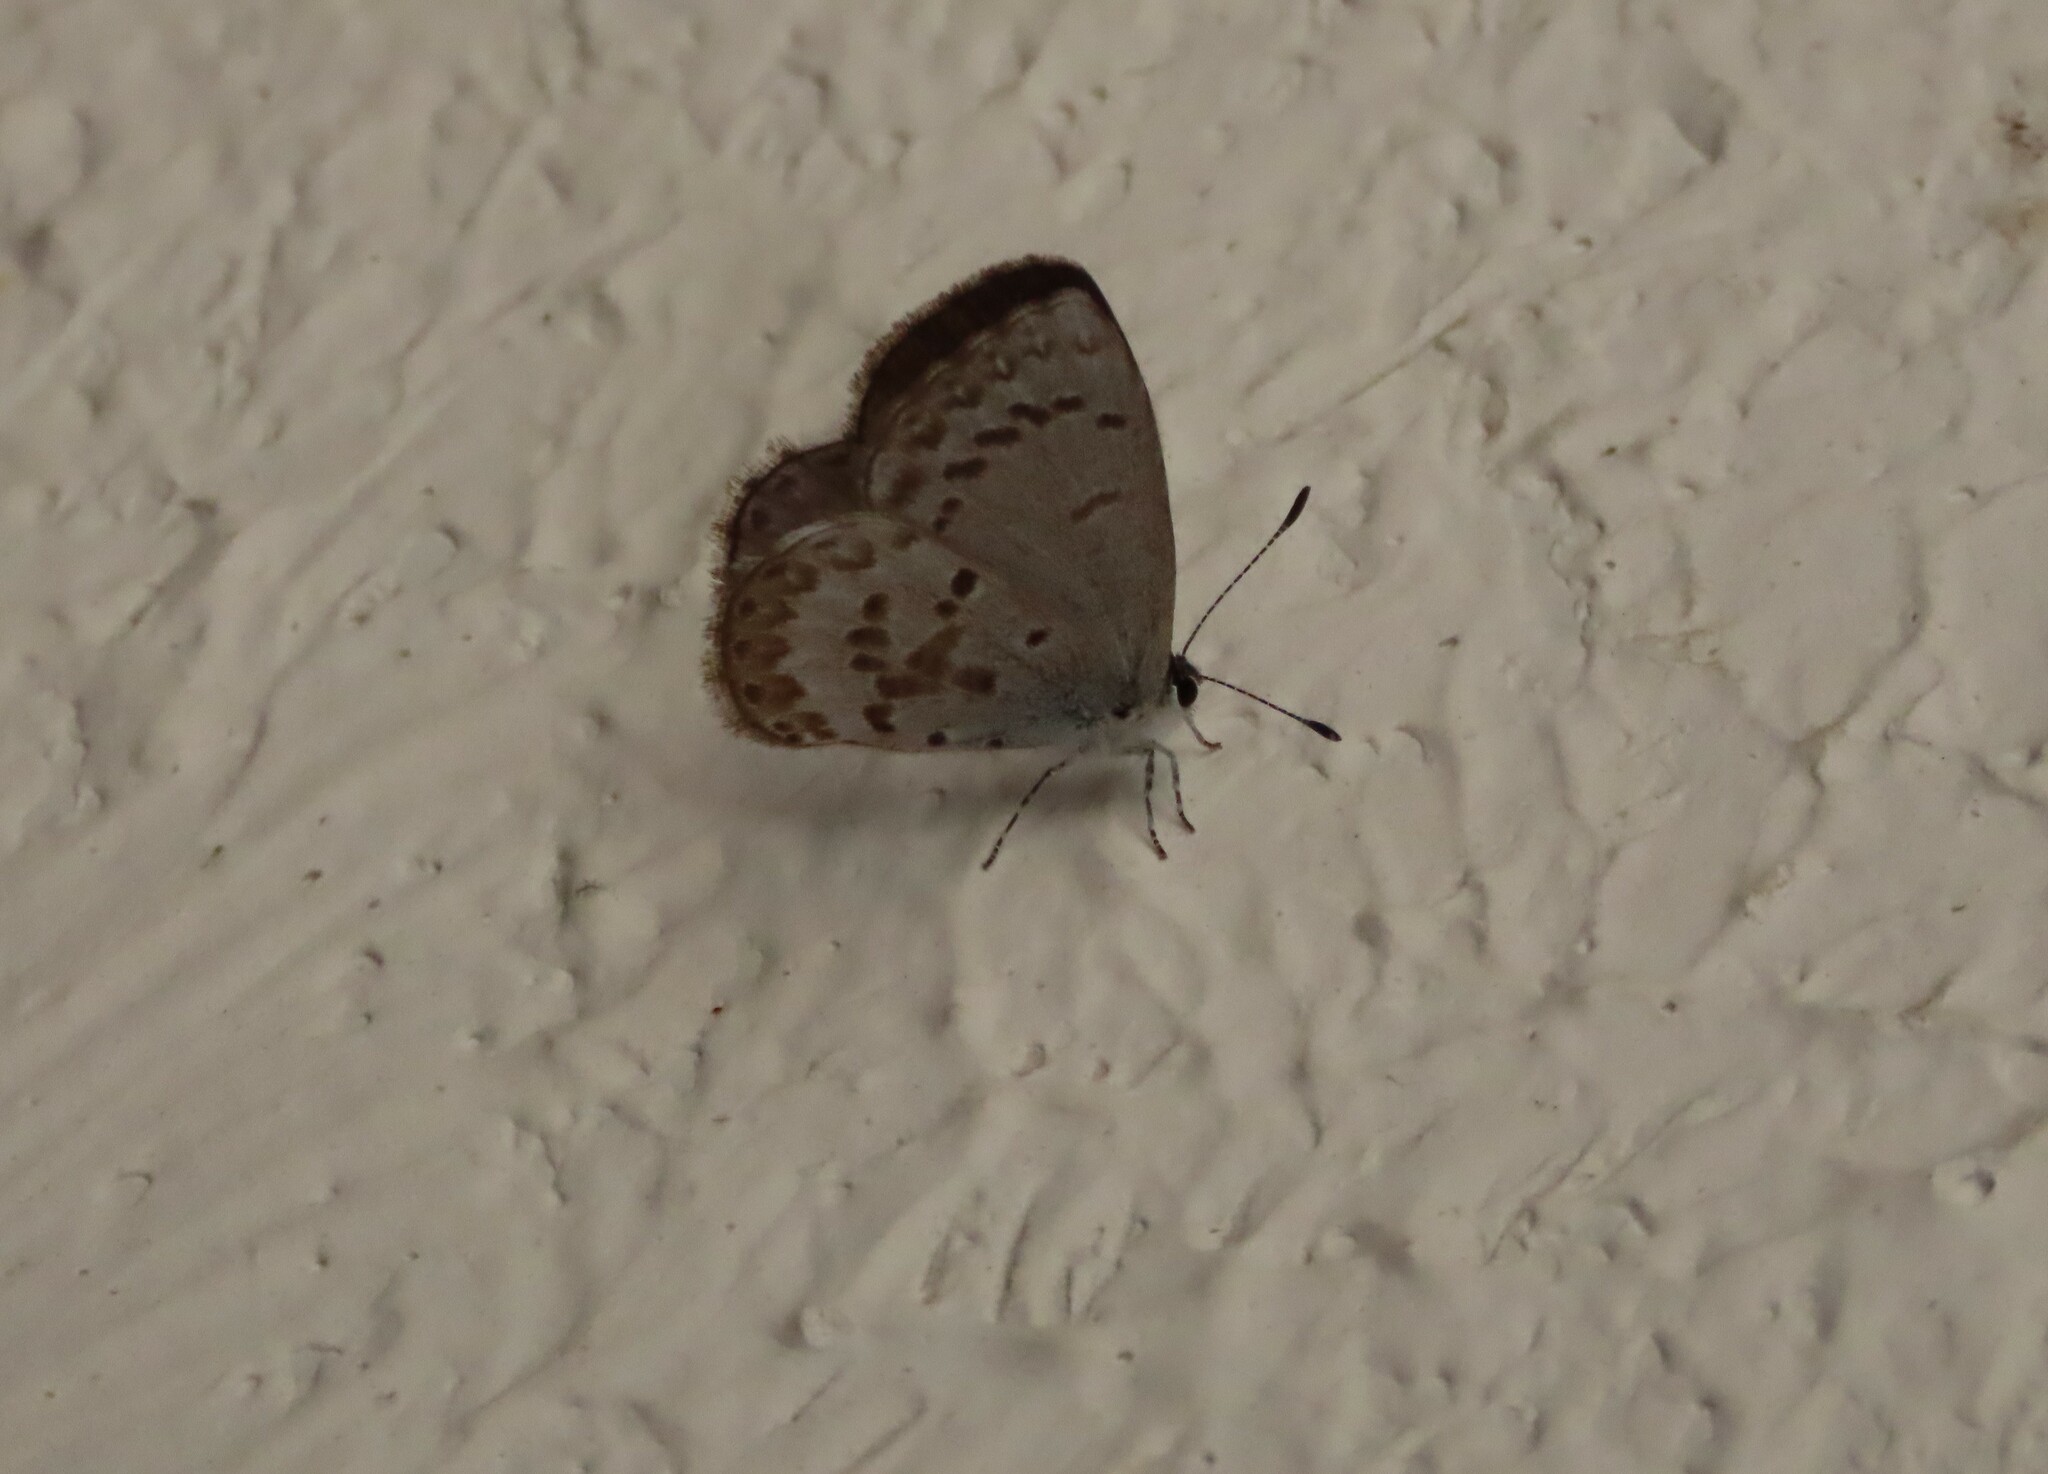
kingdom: Animalia
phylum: Arthropoda
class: Insecta
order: Lepidoptera
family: Lycaenidae
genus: Celastrina
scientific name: Celastrina lucia
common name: Lucia azure
